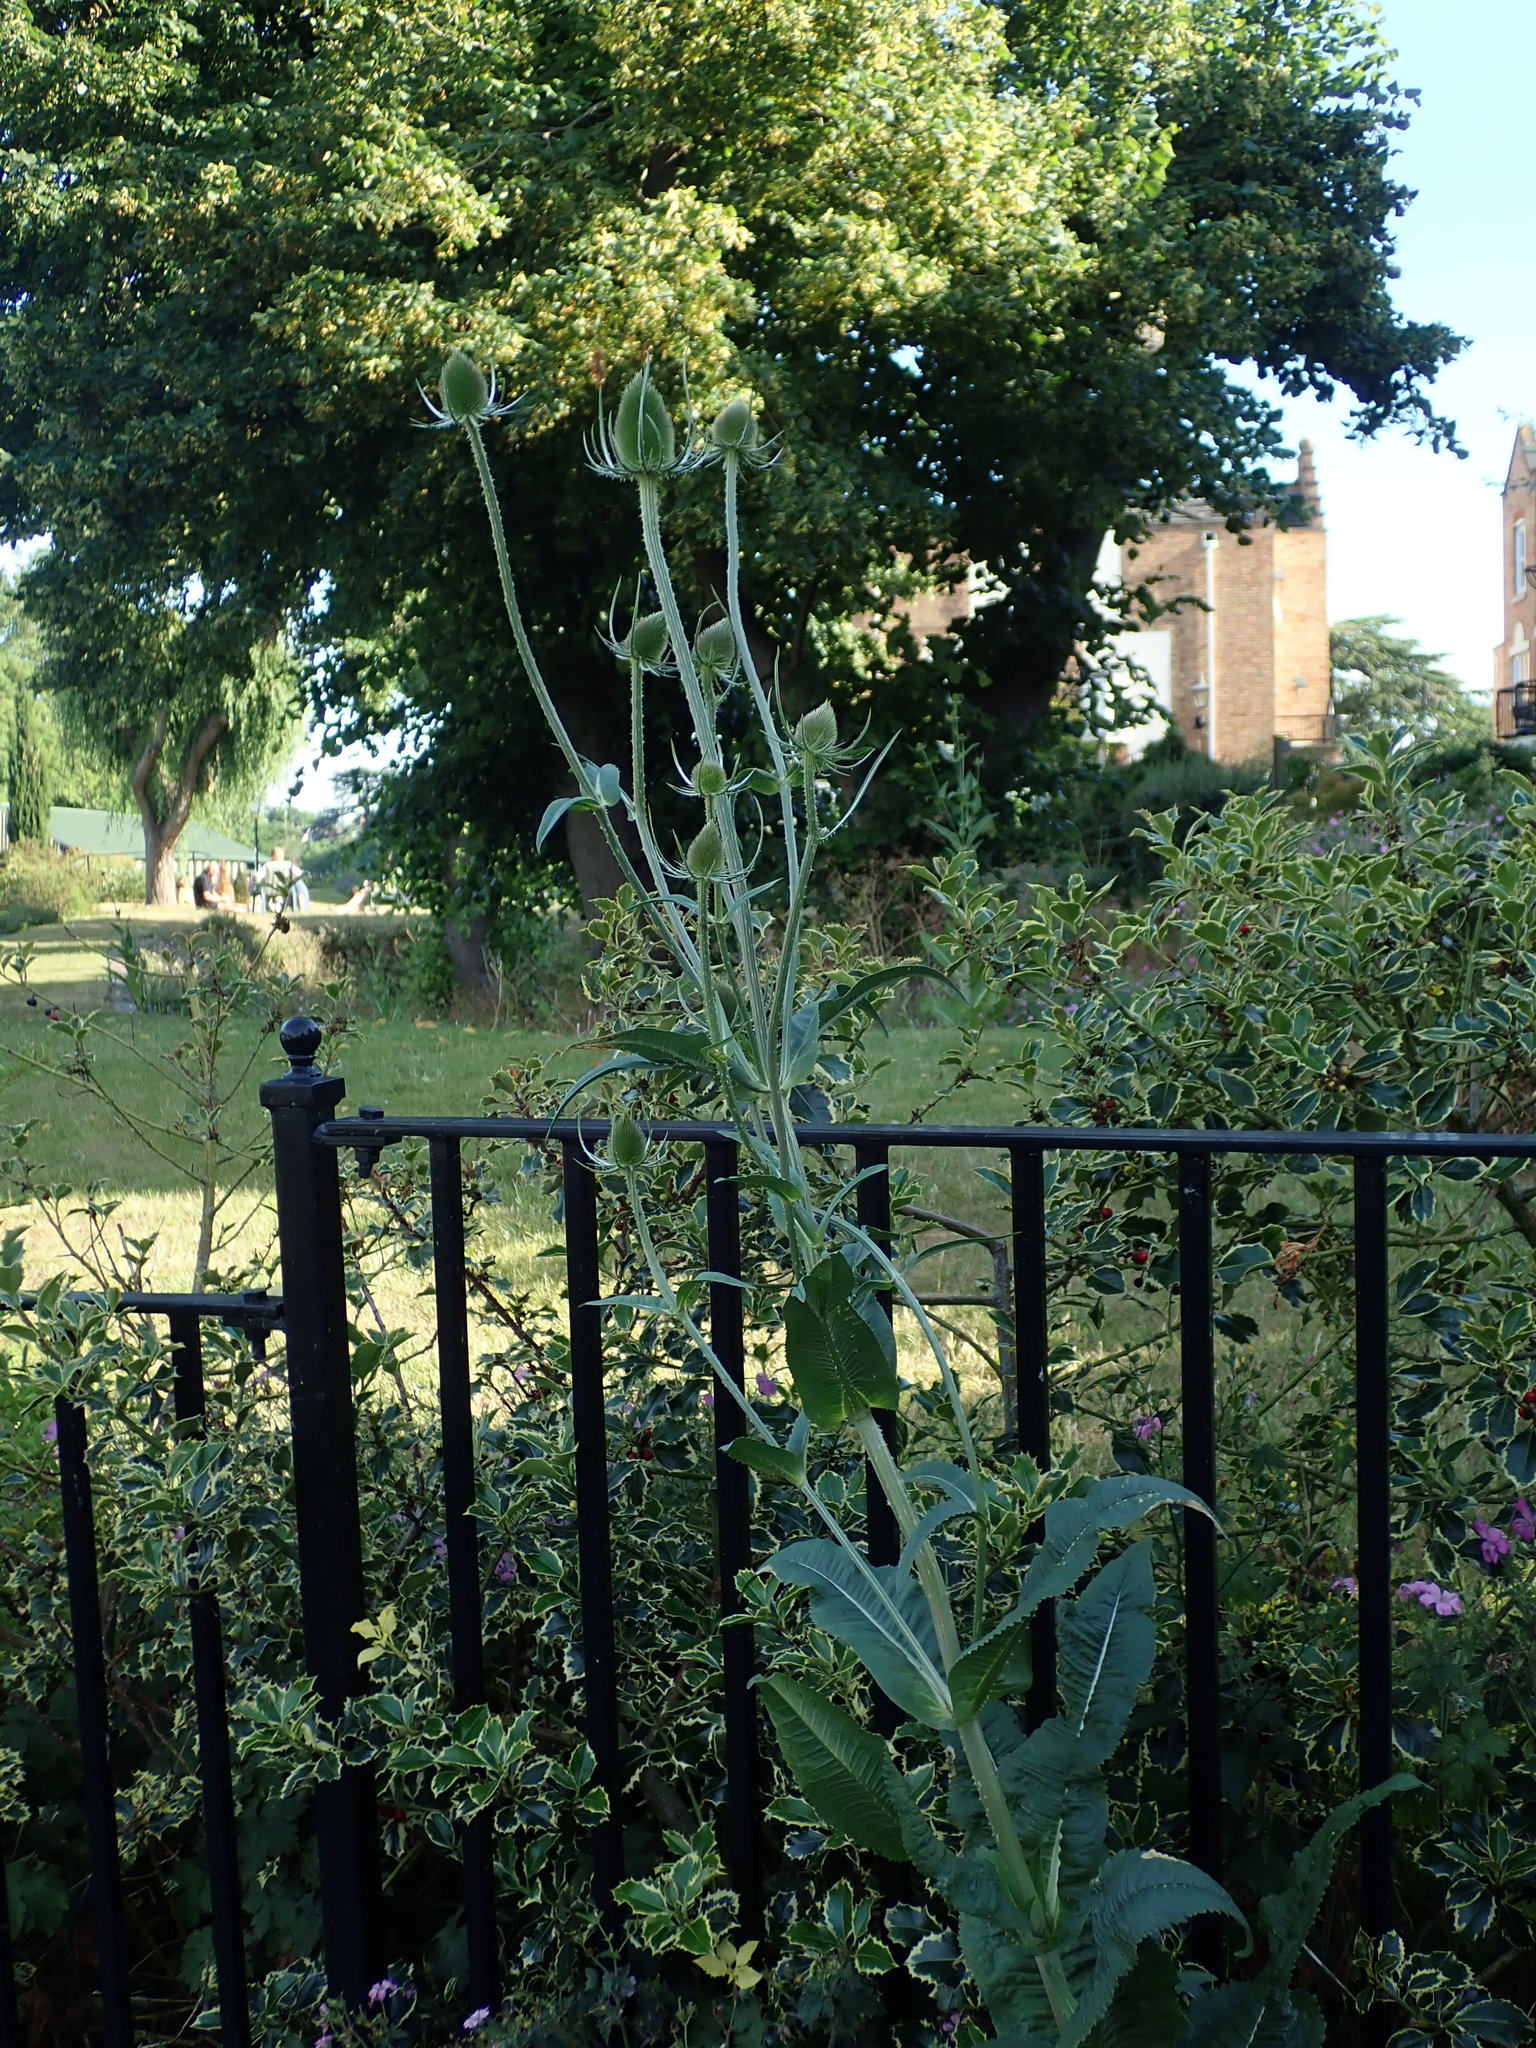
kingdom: Plantae
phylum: Tracheophyta
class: Magnoliopsida
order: Dipsacales
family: Caprifoliaceae
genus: Dipsacus
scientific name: Dipsacus fullonum
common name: Teasel
